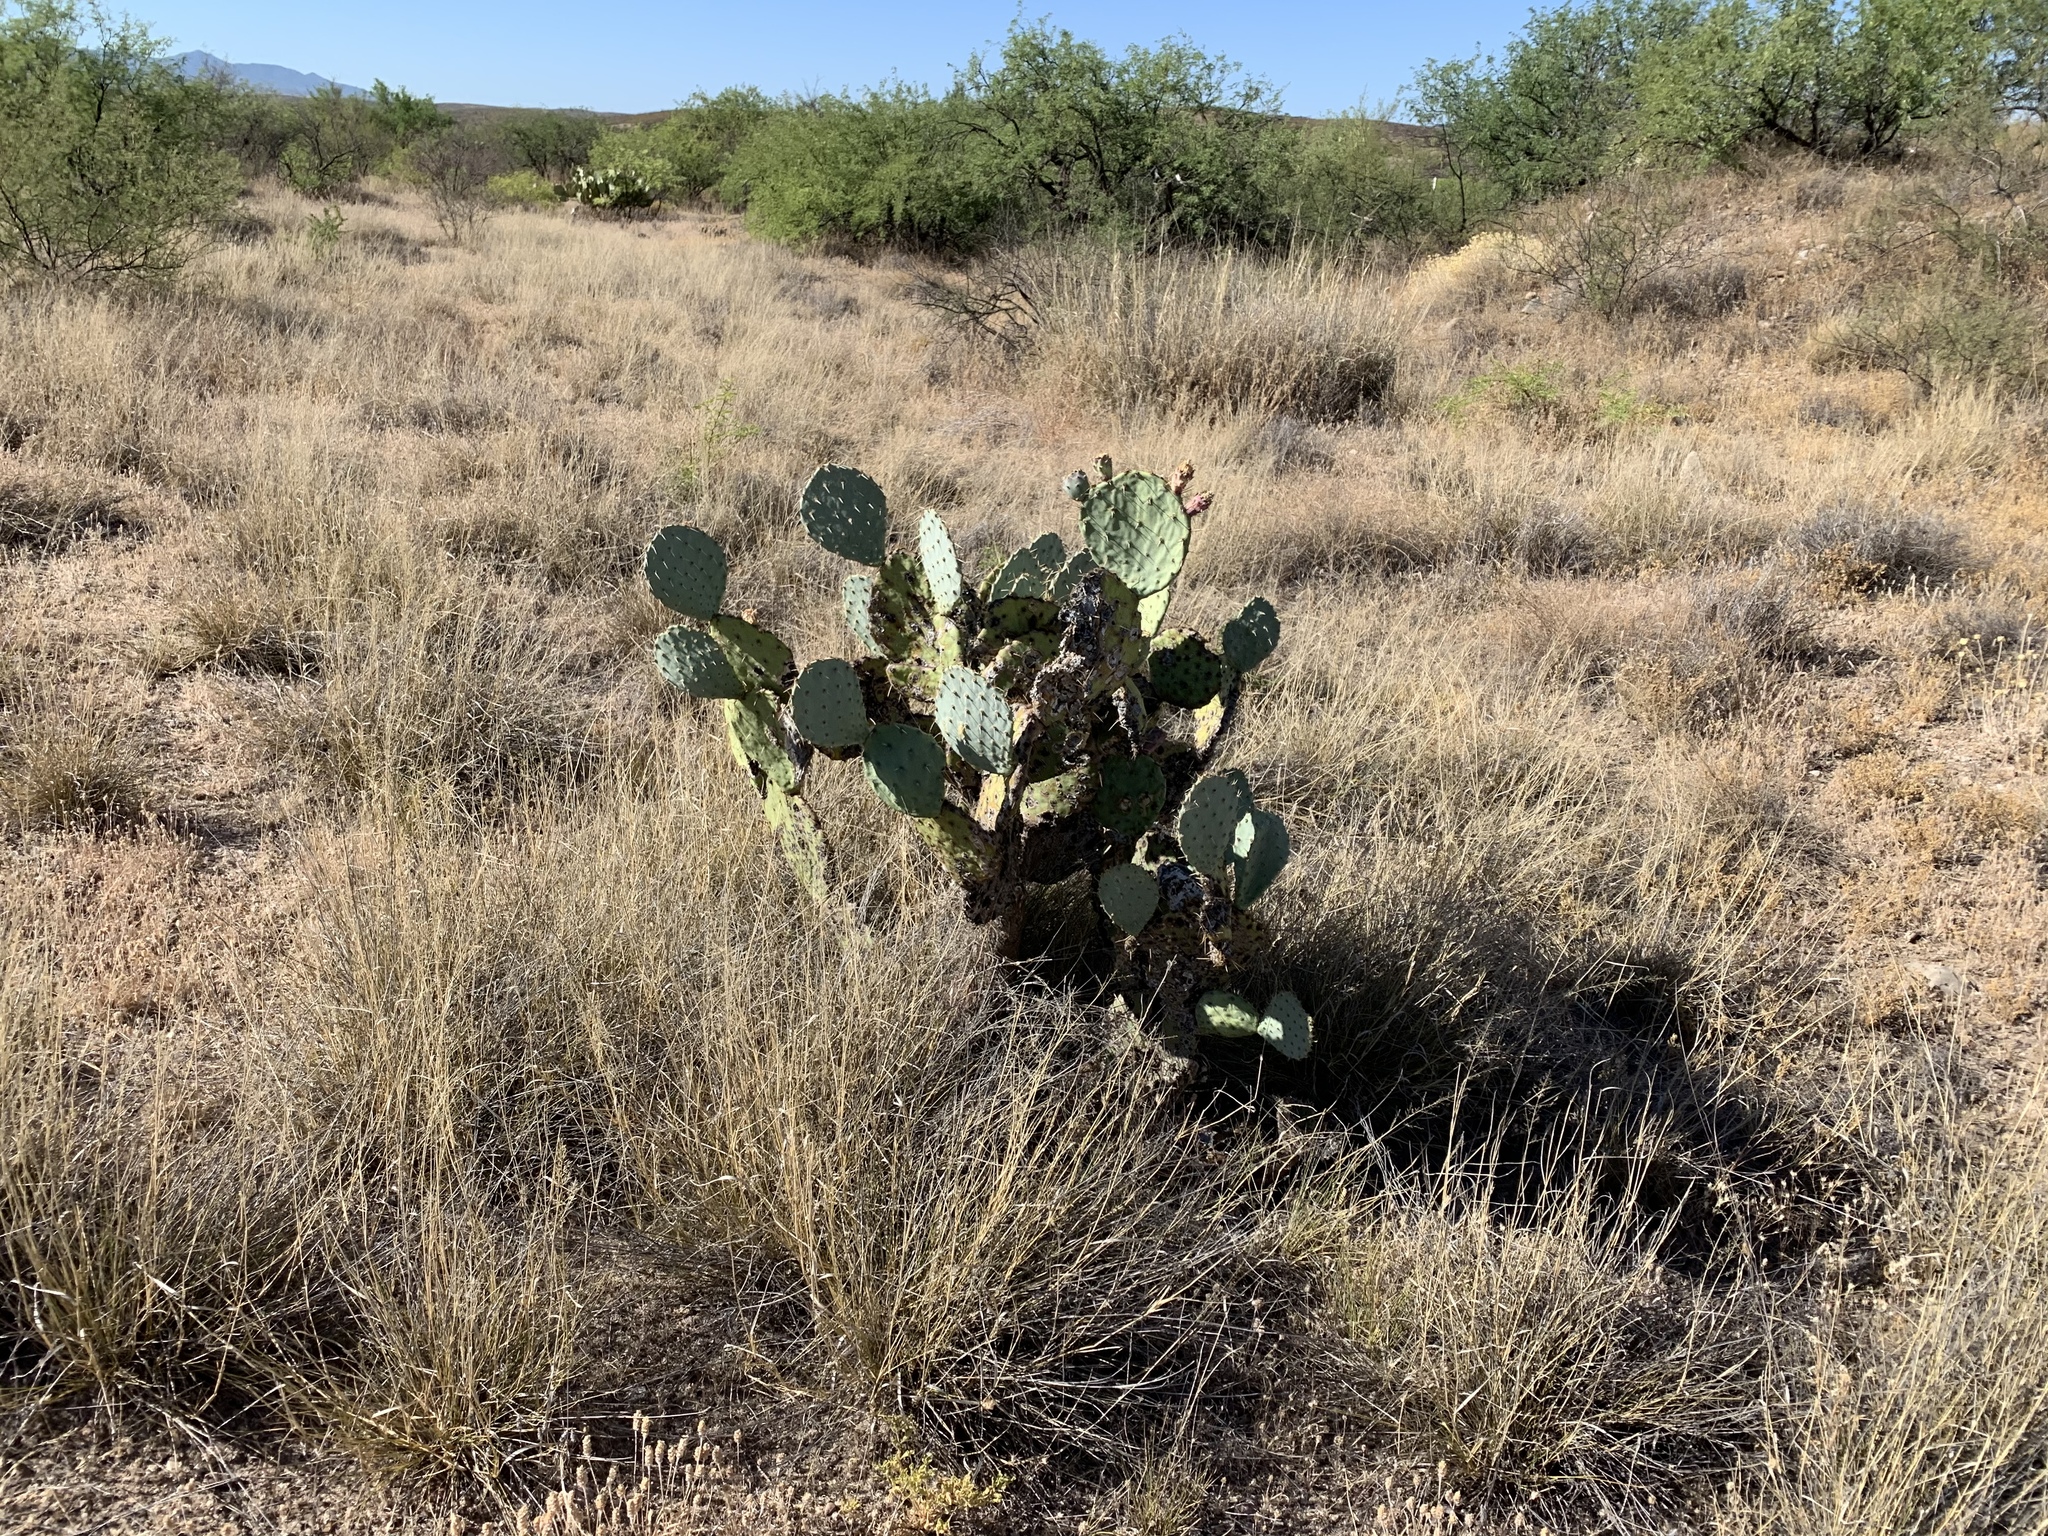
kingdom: Plantae
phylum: Tracheophyta
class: Magnoliopsida
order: Caryophyllales
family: Cactaceae
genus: Opuntia
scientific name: Opuntia engelmannii
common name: Cactus-apple
